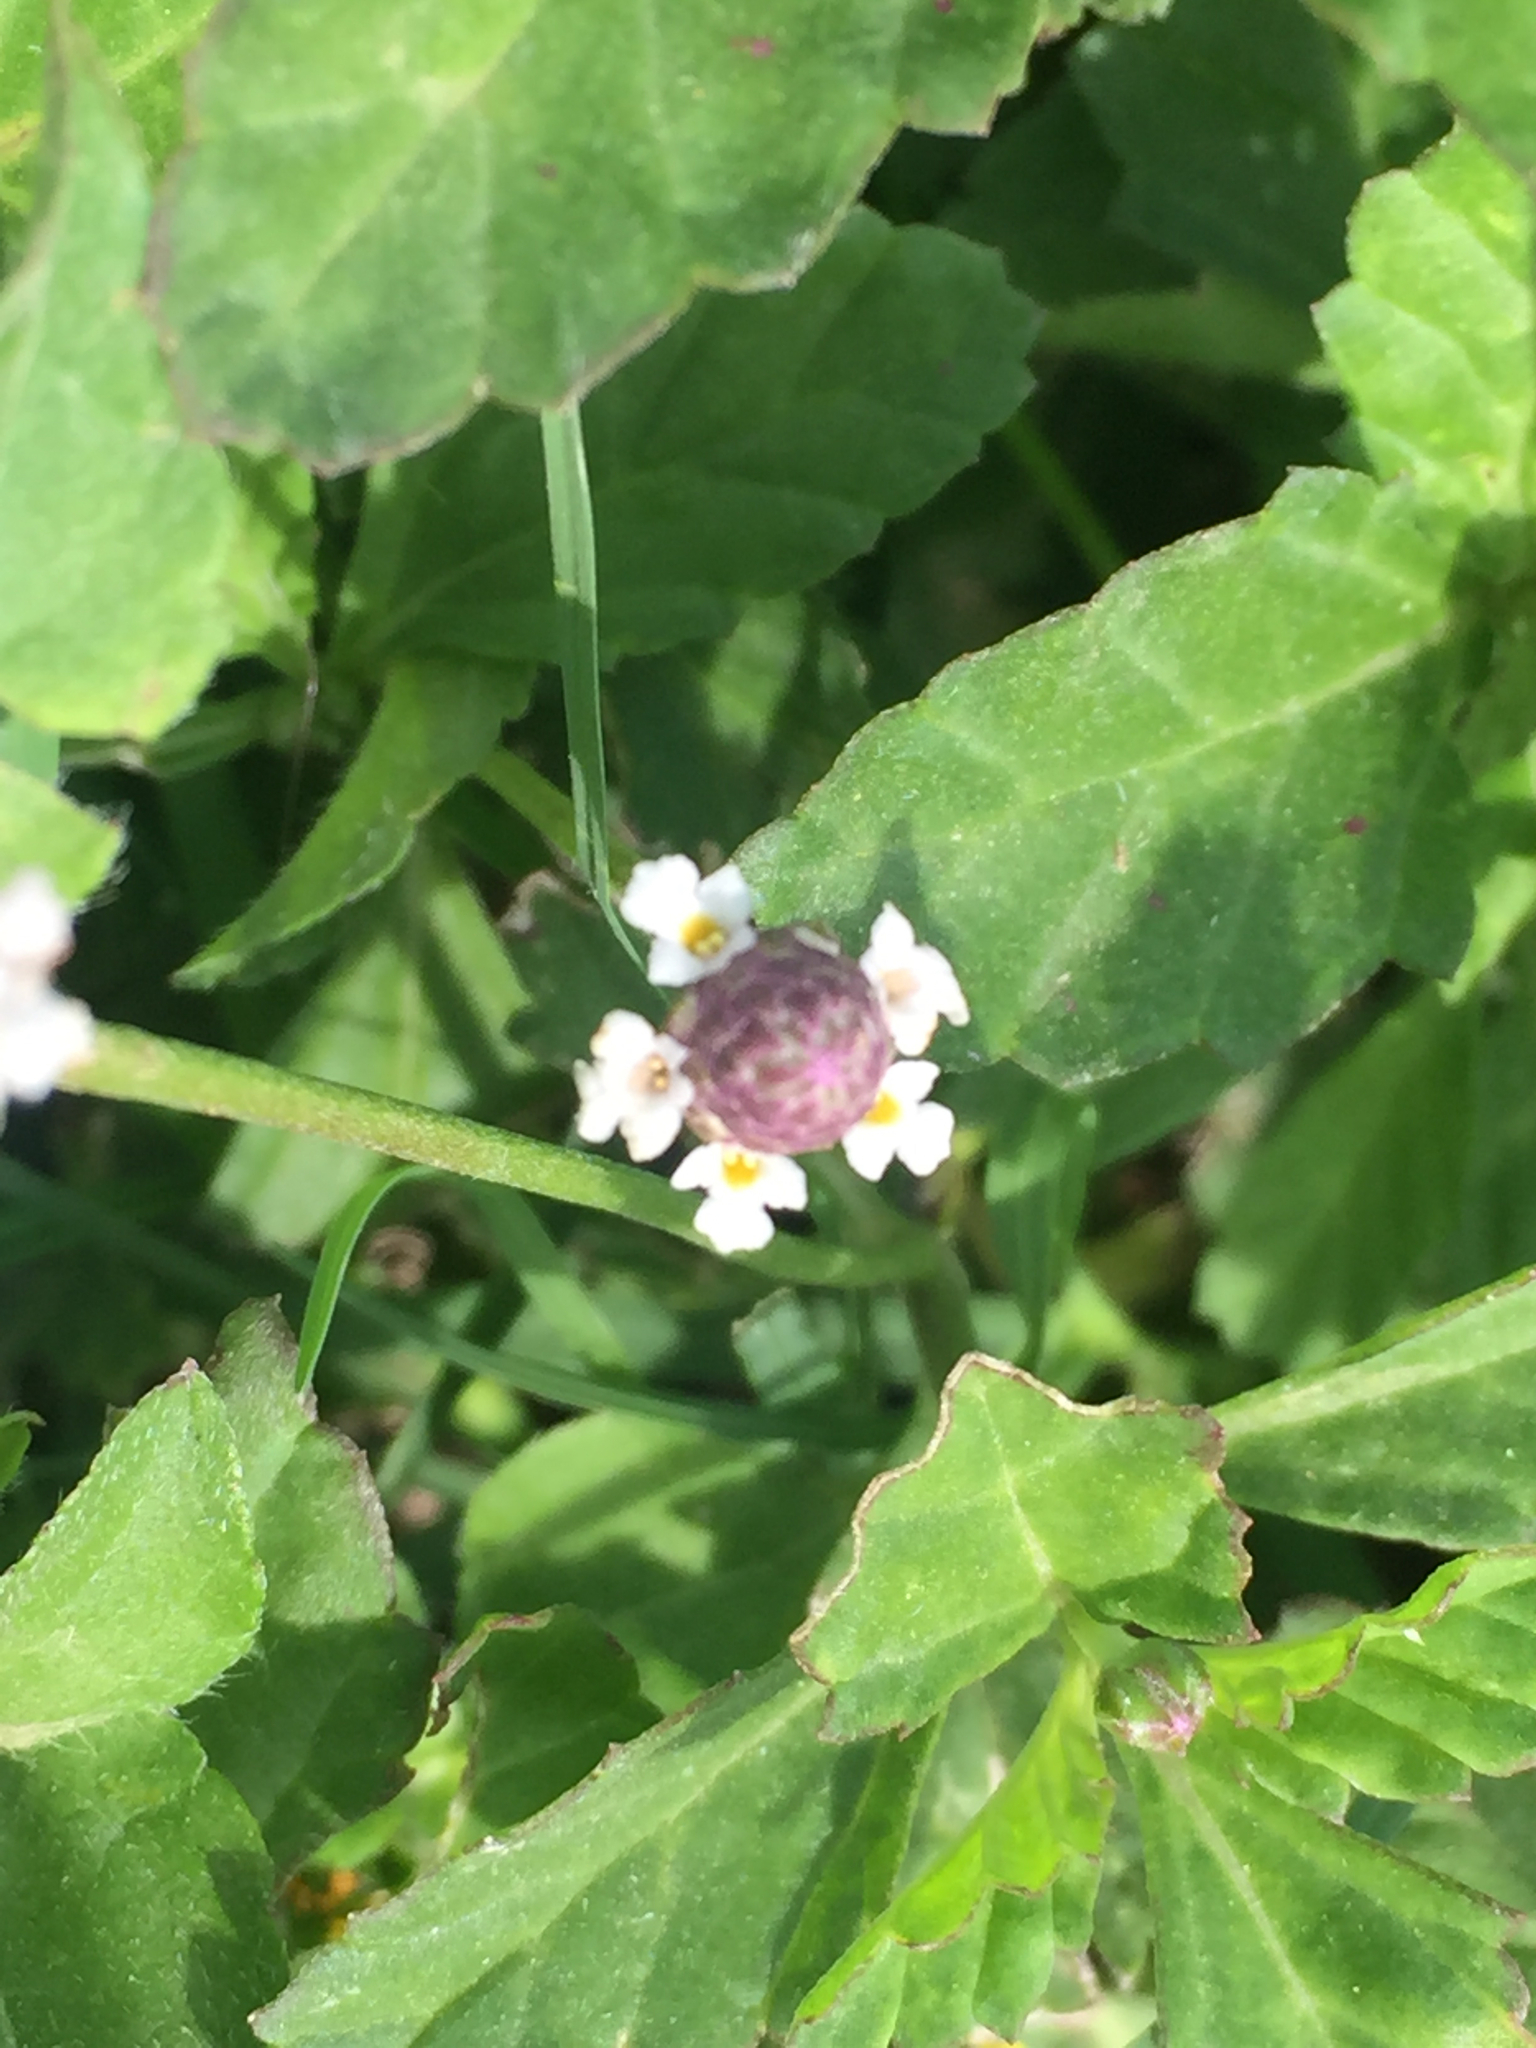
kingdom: Plantae
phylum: Tracheophyta
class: Magnoliopsida
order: Lamiales
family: Verbenaceae
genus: Phyla
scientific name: Phyla nodiflora
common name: Frogfruit
